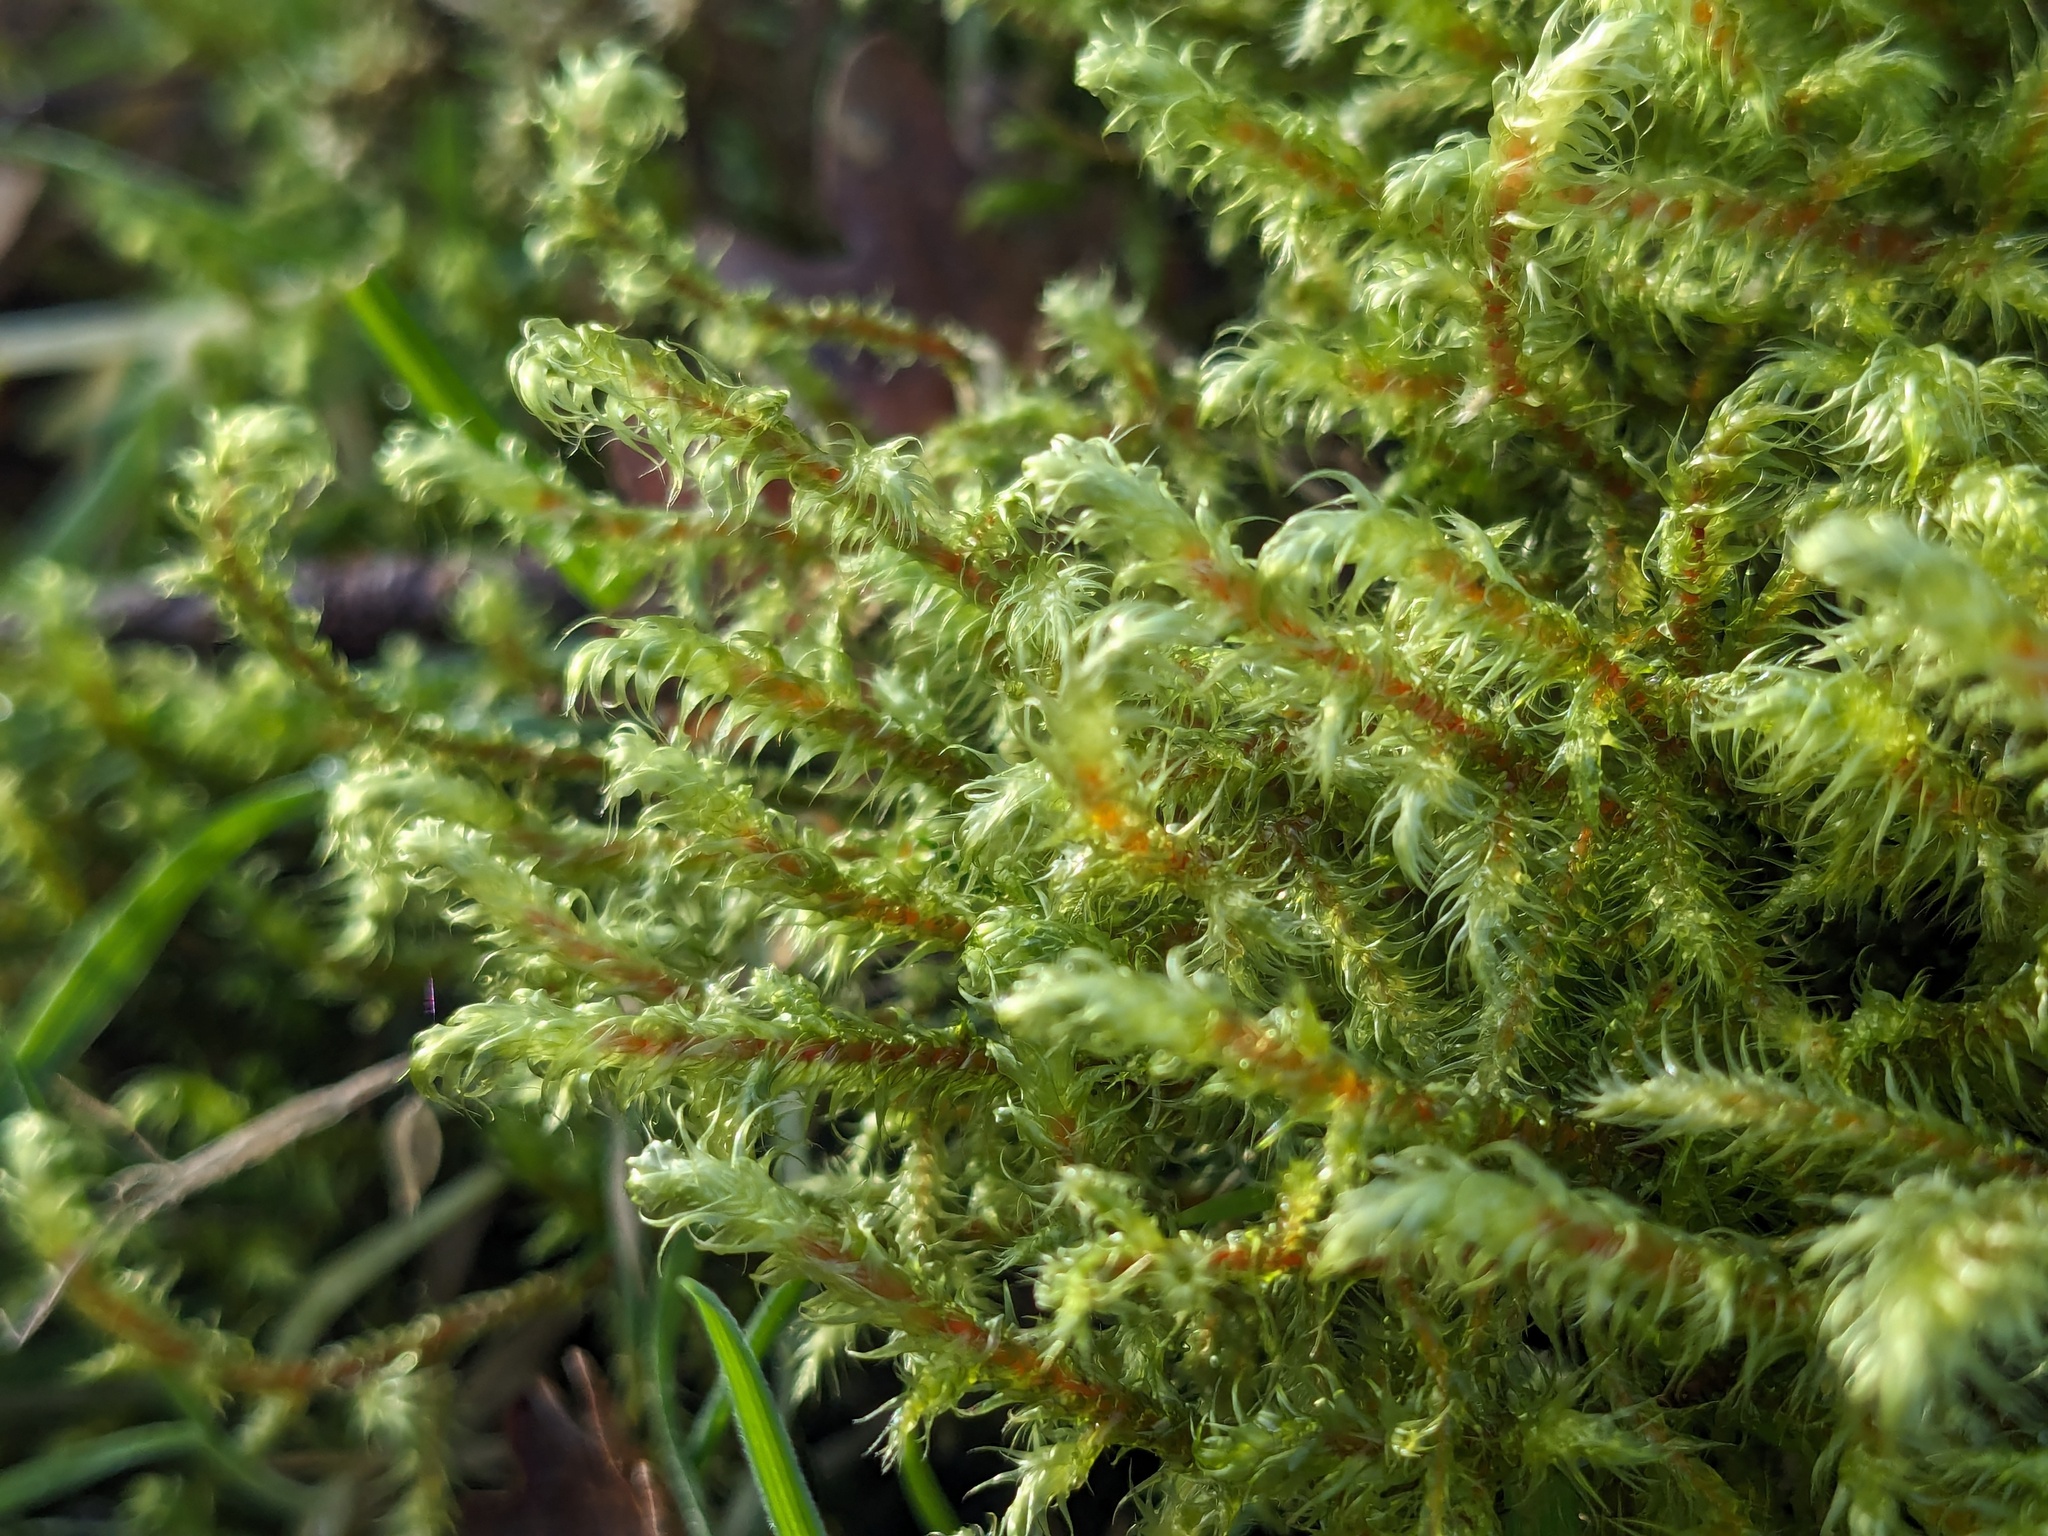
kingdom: Plantae
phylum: Bryophyta
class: Bryopsida
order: Hypnales
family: Hylocomiaceae
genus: Rhytidiadelphus
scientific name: Rhytidiadelphus loreus
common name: Lanky moss
